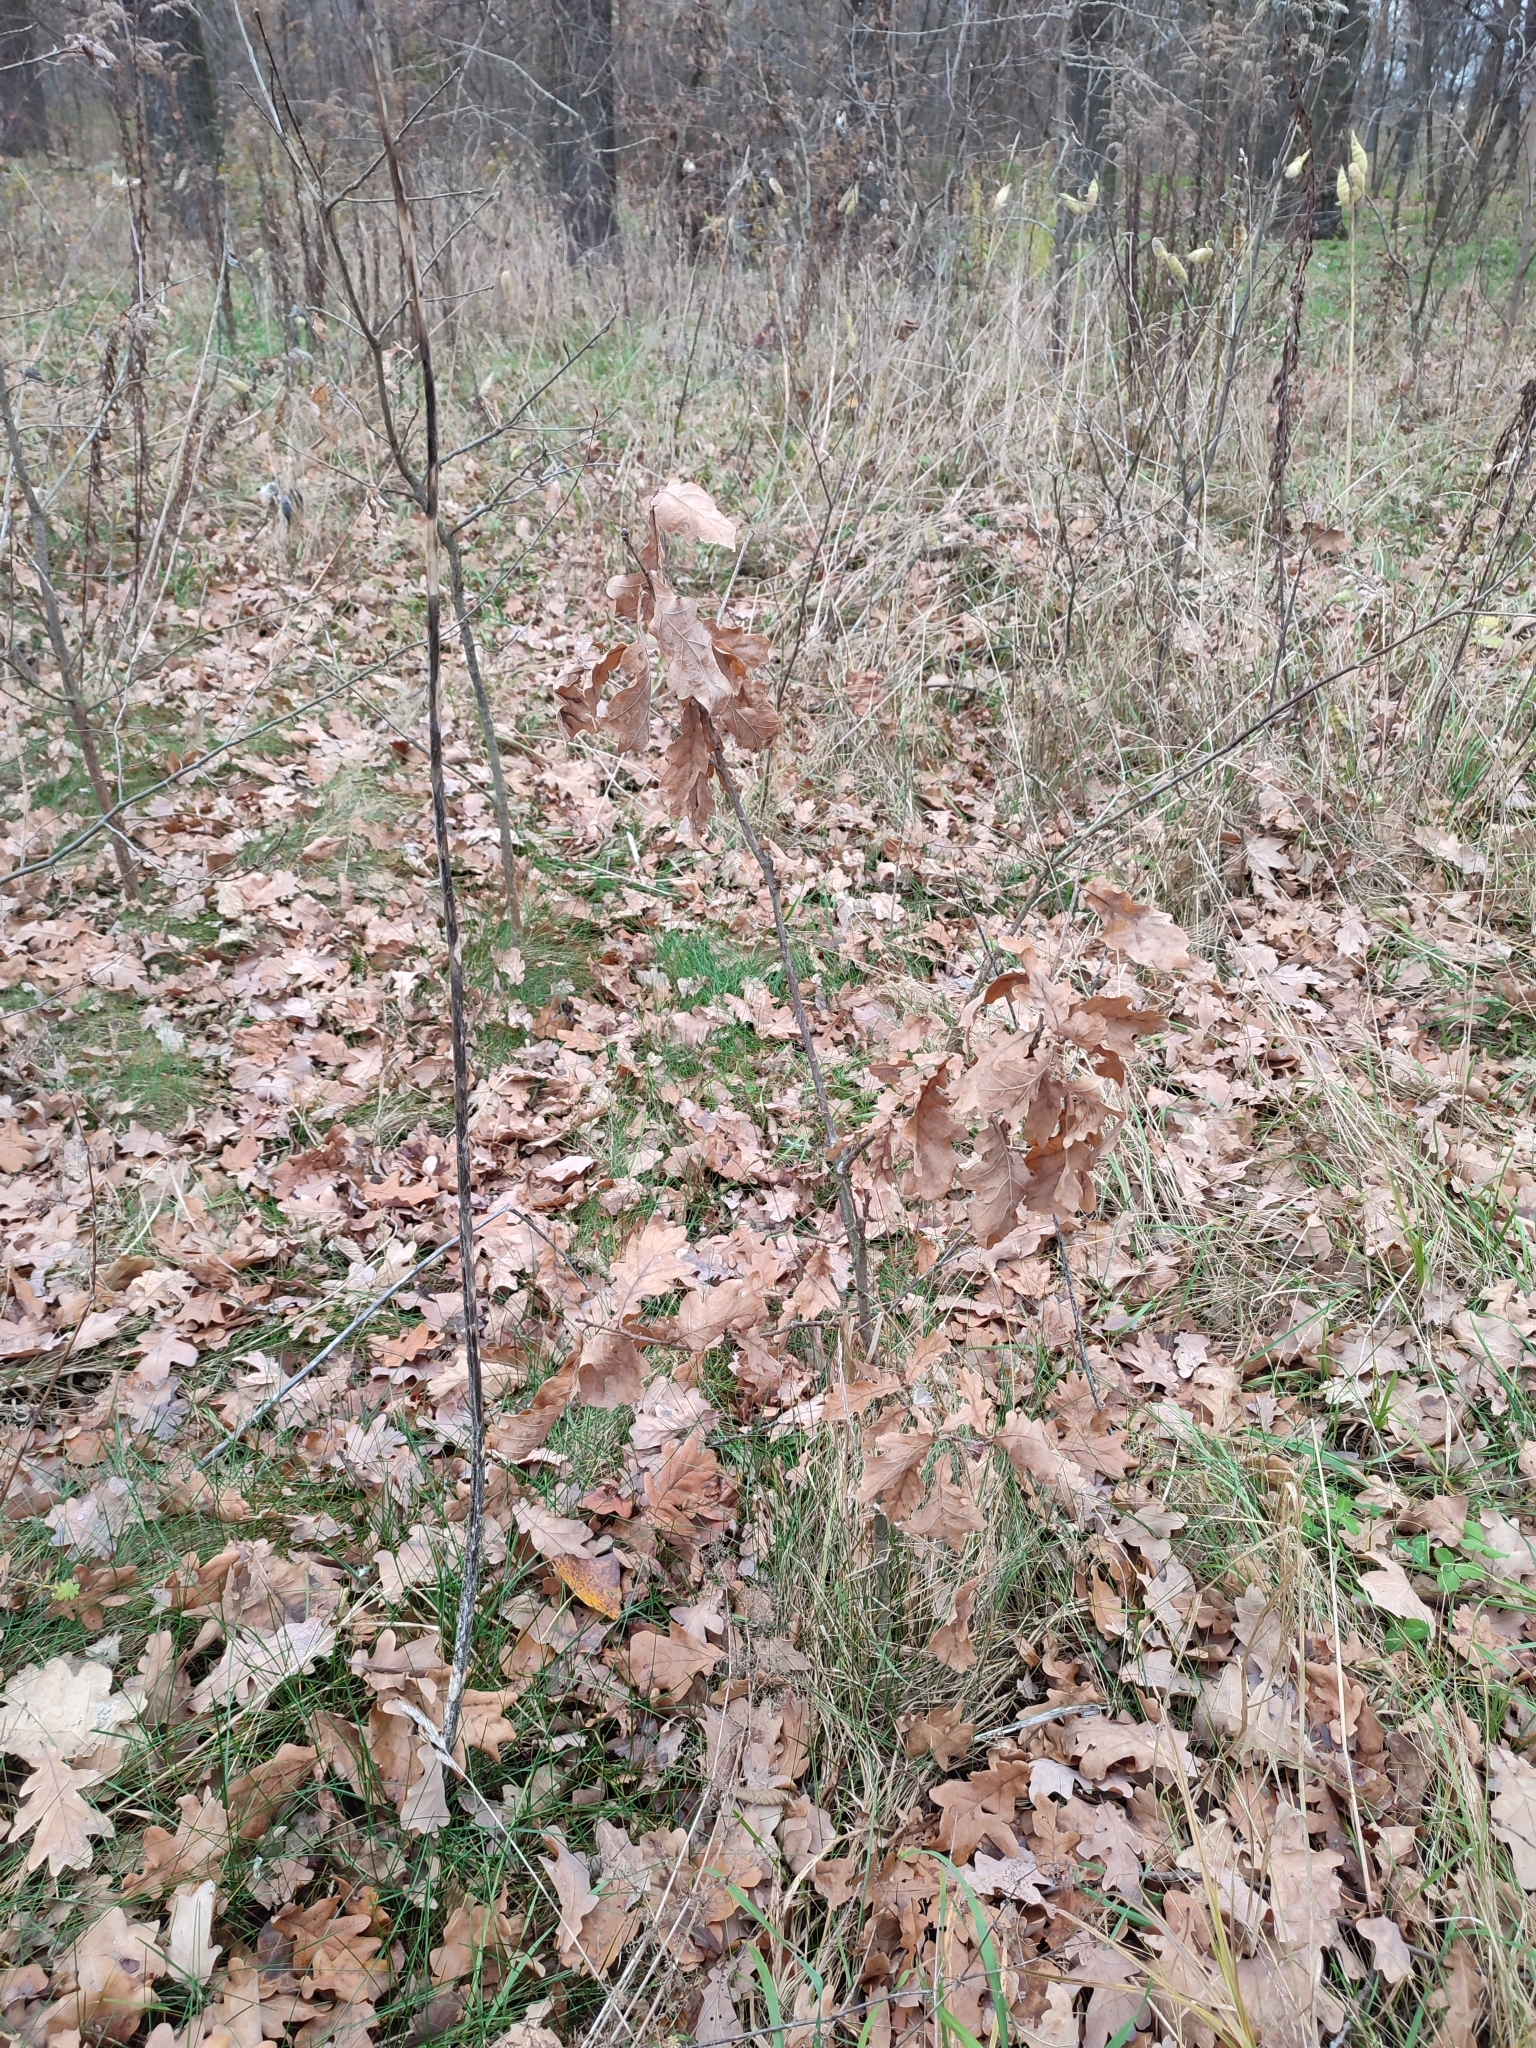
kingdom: Plantae
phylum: Tracheophyta
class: Magnoliopsida
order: Fagales
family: Fagaceae
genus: Quercus
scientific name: Quercus robur
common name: Pedunculate oak
